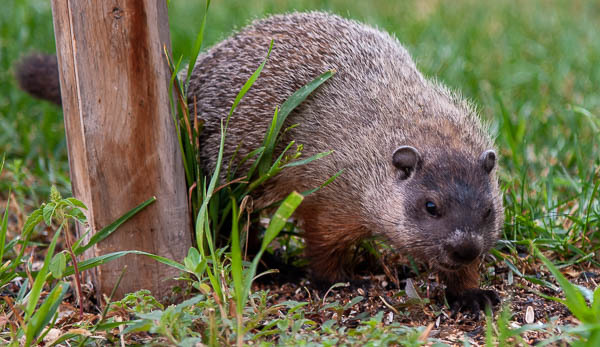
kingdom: Animalia
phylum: Chordata
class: Mammalia
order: Rodentia
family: Sciuridae
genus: Marmota
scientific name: Marmota monax
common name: Groundhog
